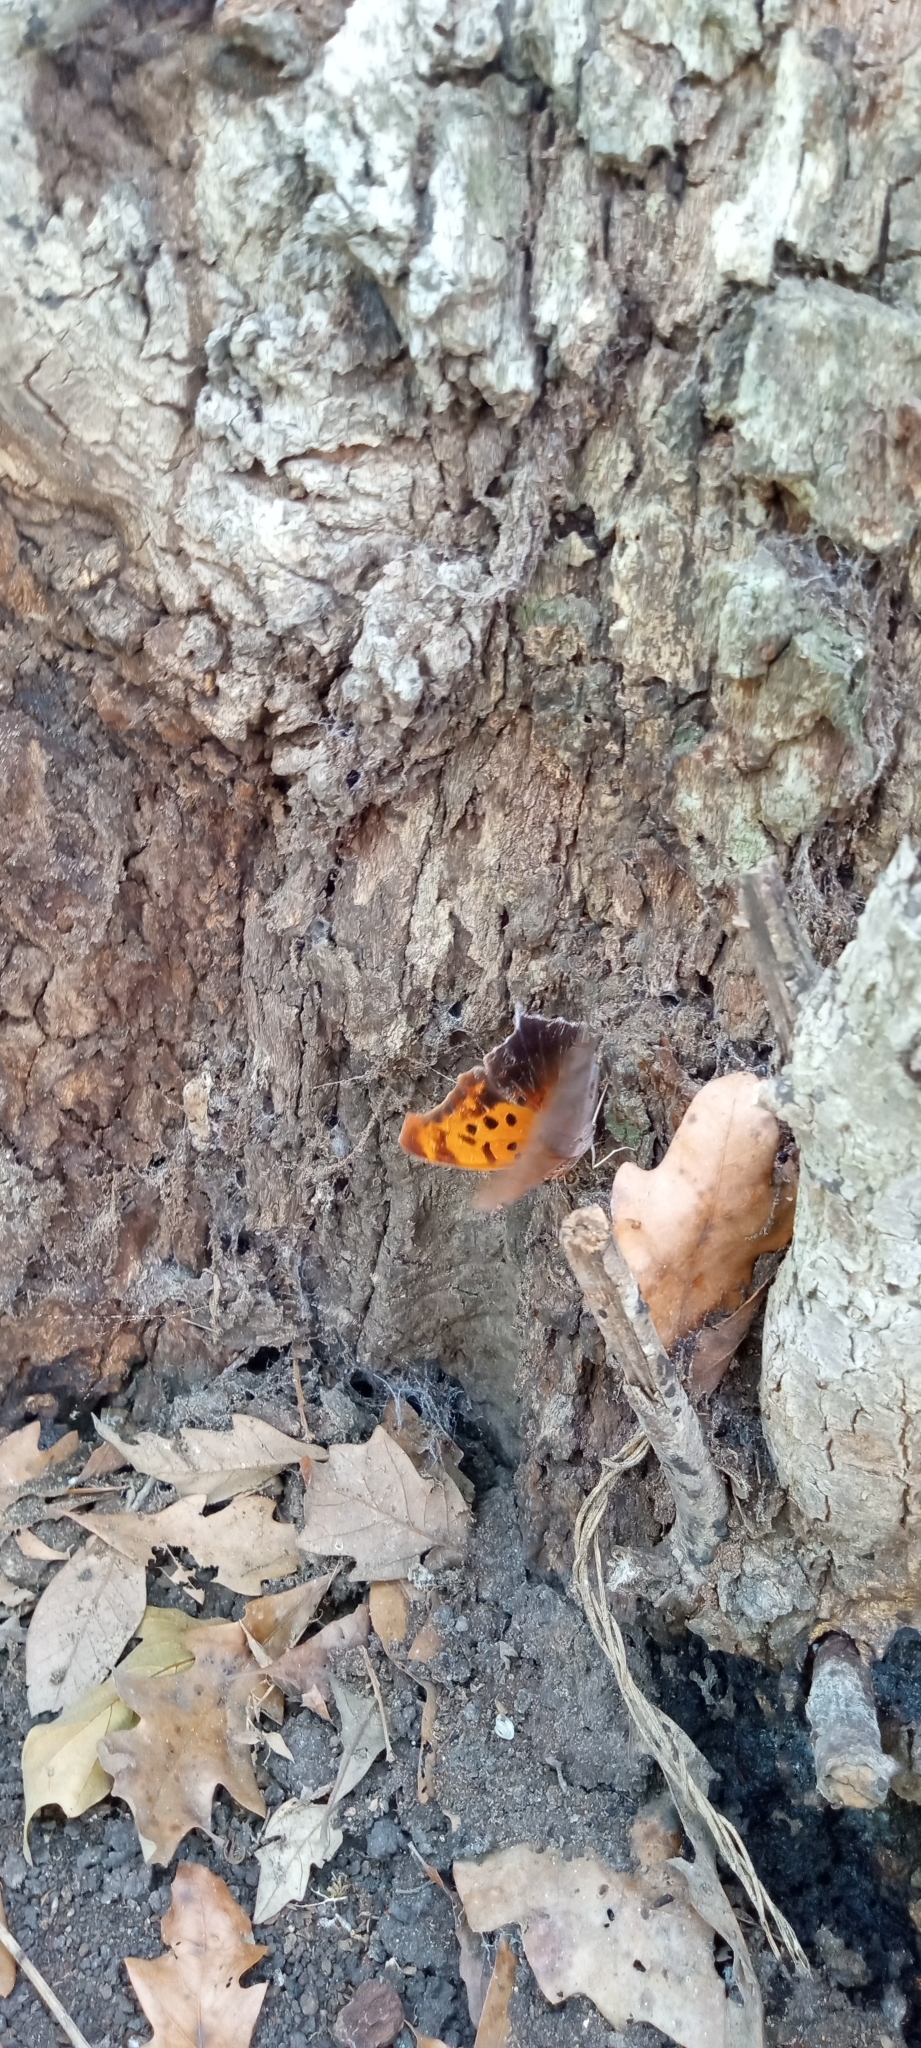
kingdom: Animalia
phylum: Arthropoda
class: Insecta
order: Lepidoptera
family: Nymphalidae
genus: Polygonia
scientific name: Polygonia interrogationis
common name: Question mark
